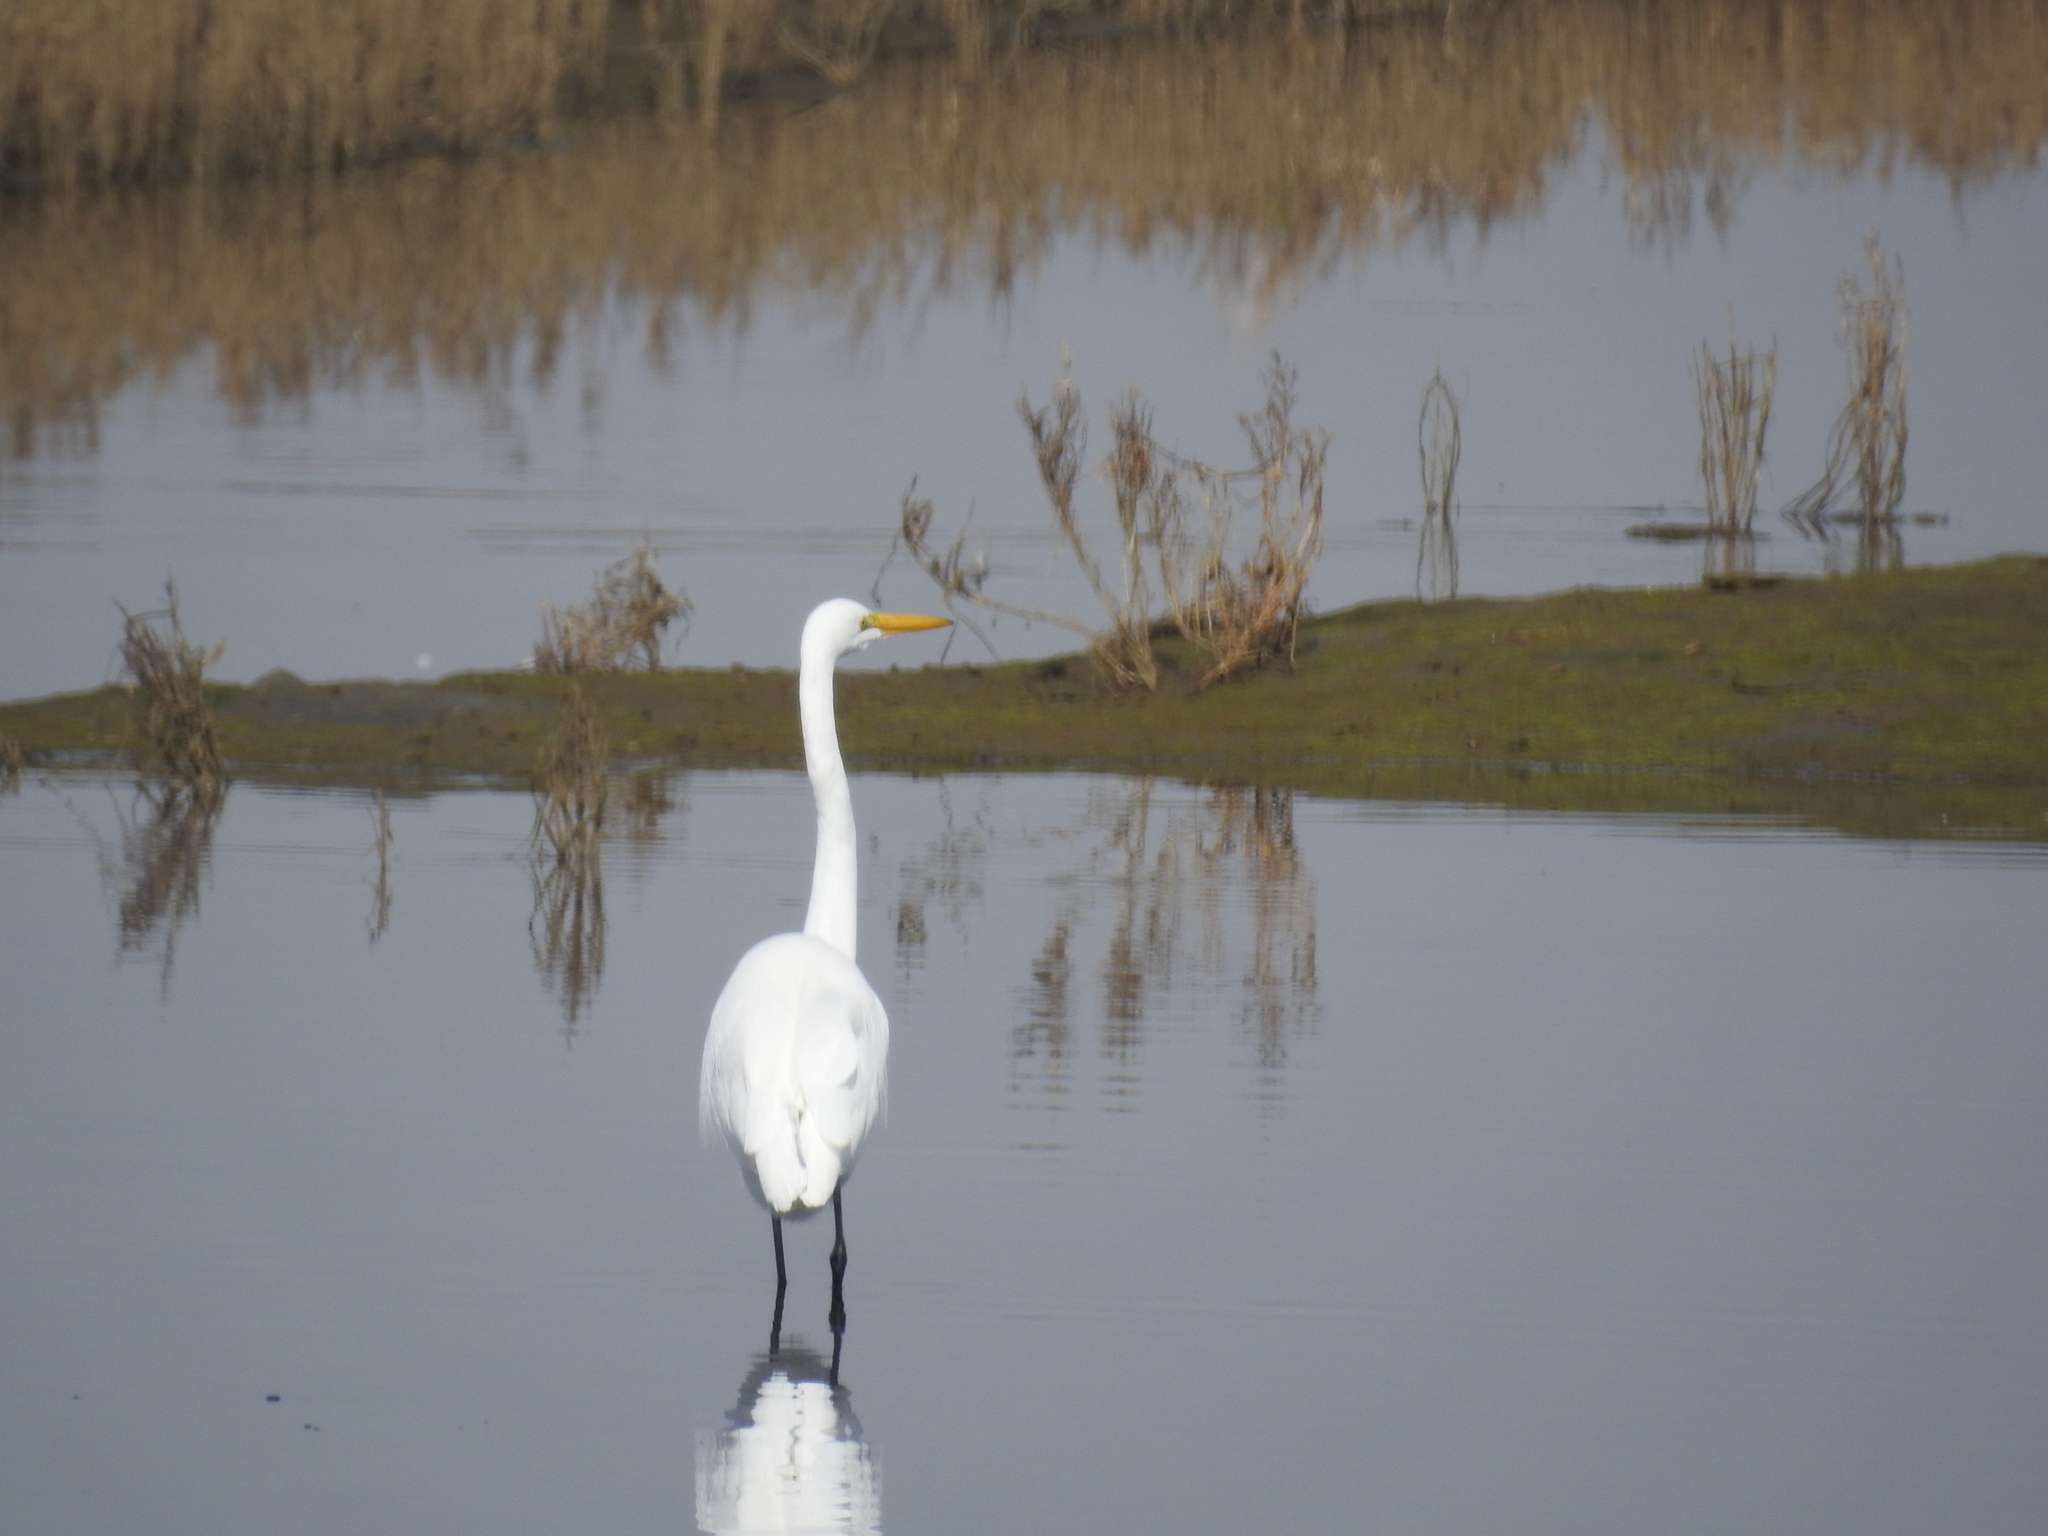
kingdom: Animalia
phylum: Chordata
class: Aves
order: Pelecaniformes
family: Ardeidae
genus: Ardea
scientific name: Ardea alba
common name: Great egret
